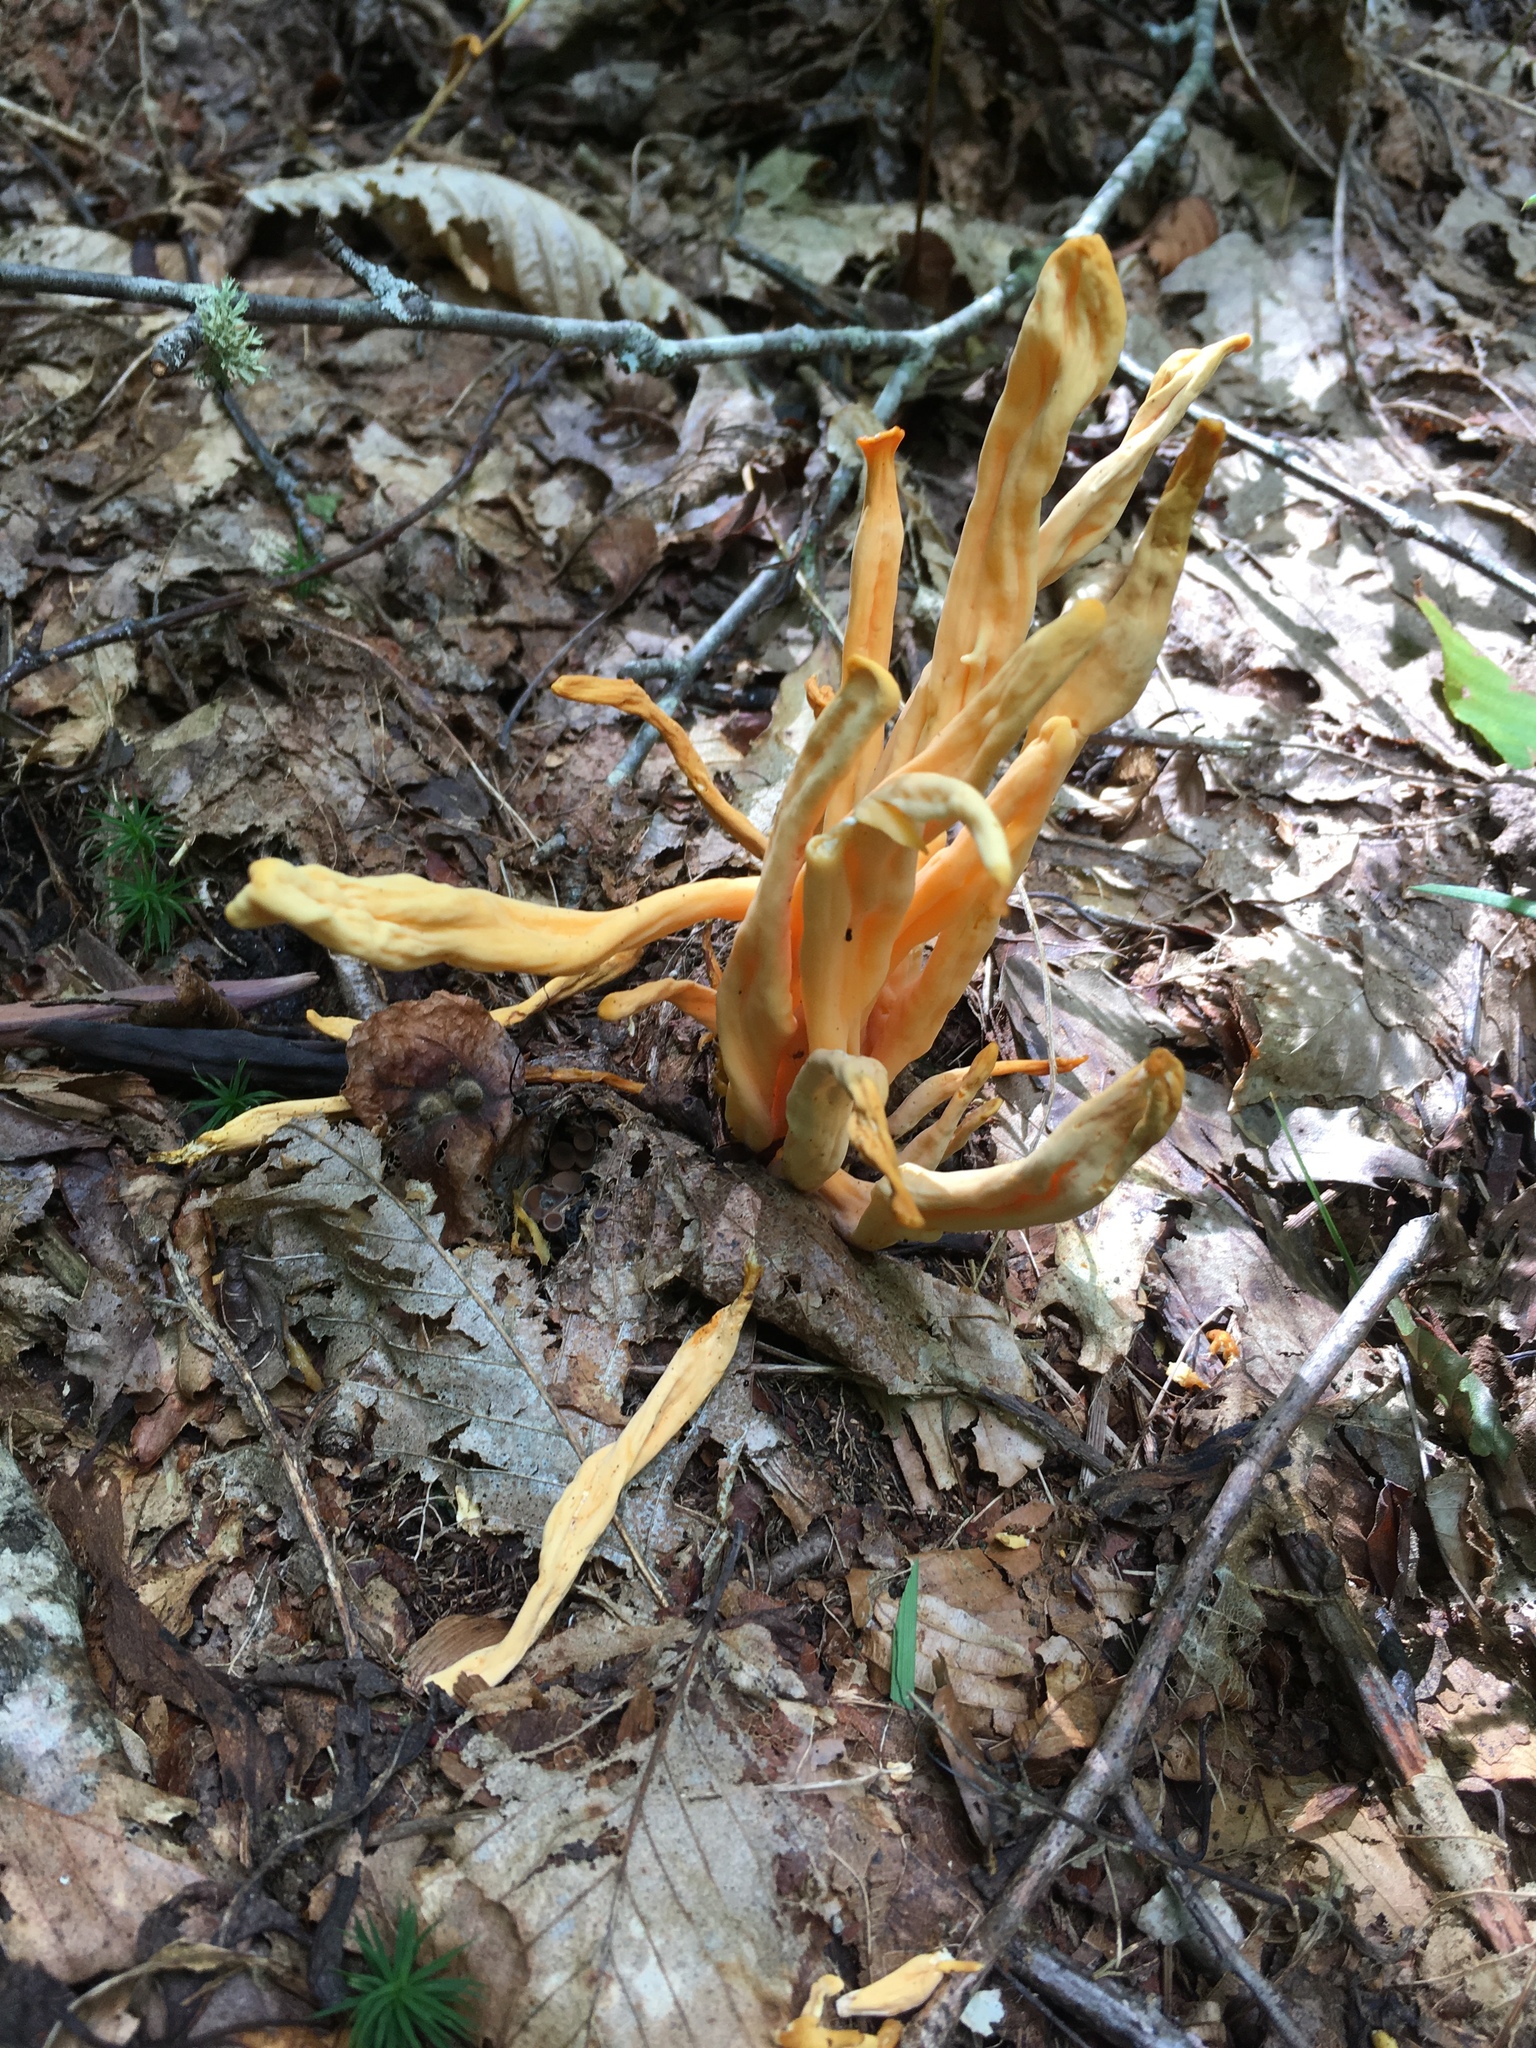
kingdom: Fungi
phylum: Basidiomycota
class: Agaricomycetes
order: Agaricales
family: Clavariaceae
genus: Clavulinopsis
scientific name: Clavulinopsis aurantiocinnabarina
